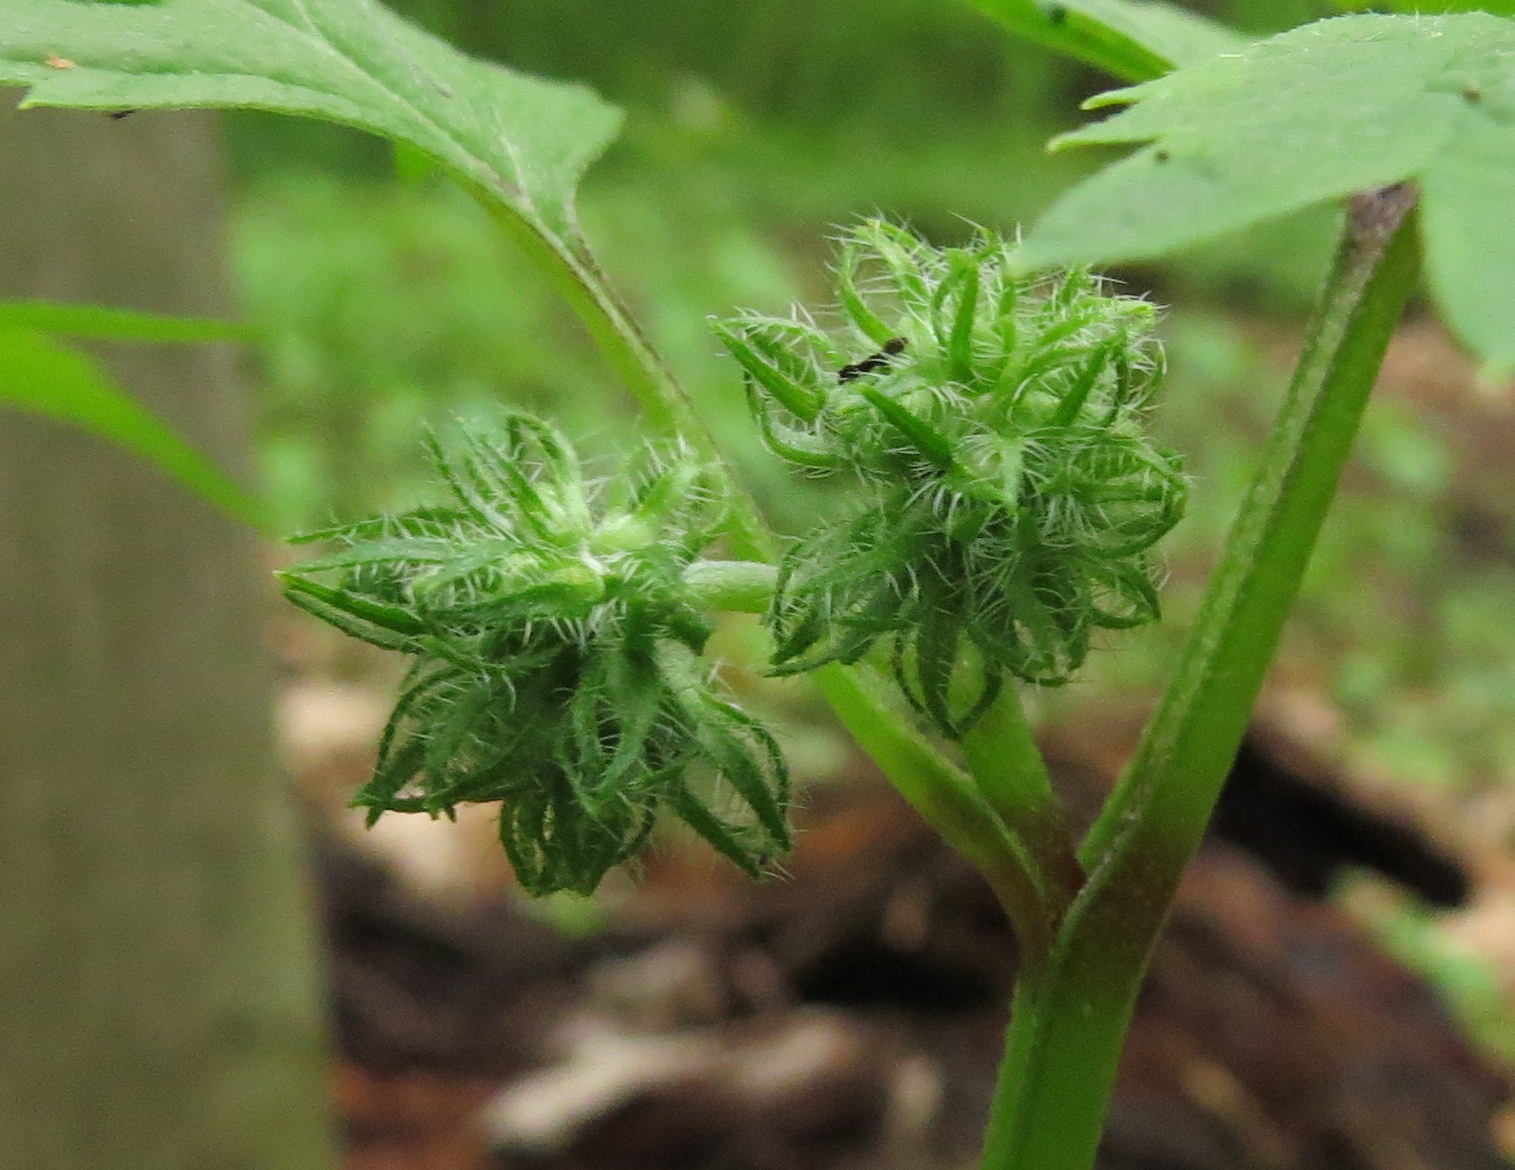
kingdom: Plantae
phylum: Tracheophyta
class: Magnoliopsida
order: Boraginales
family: Hydrophyllaceae
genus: Hydrophyllum
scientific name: Hydrophyllum virginianum
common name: Virginia waterleaf
